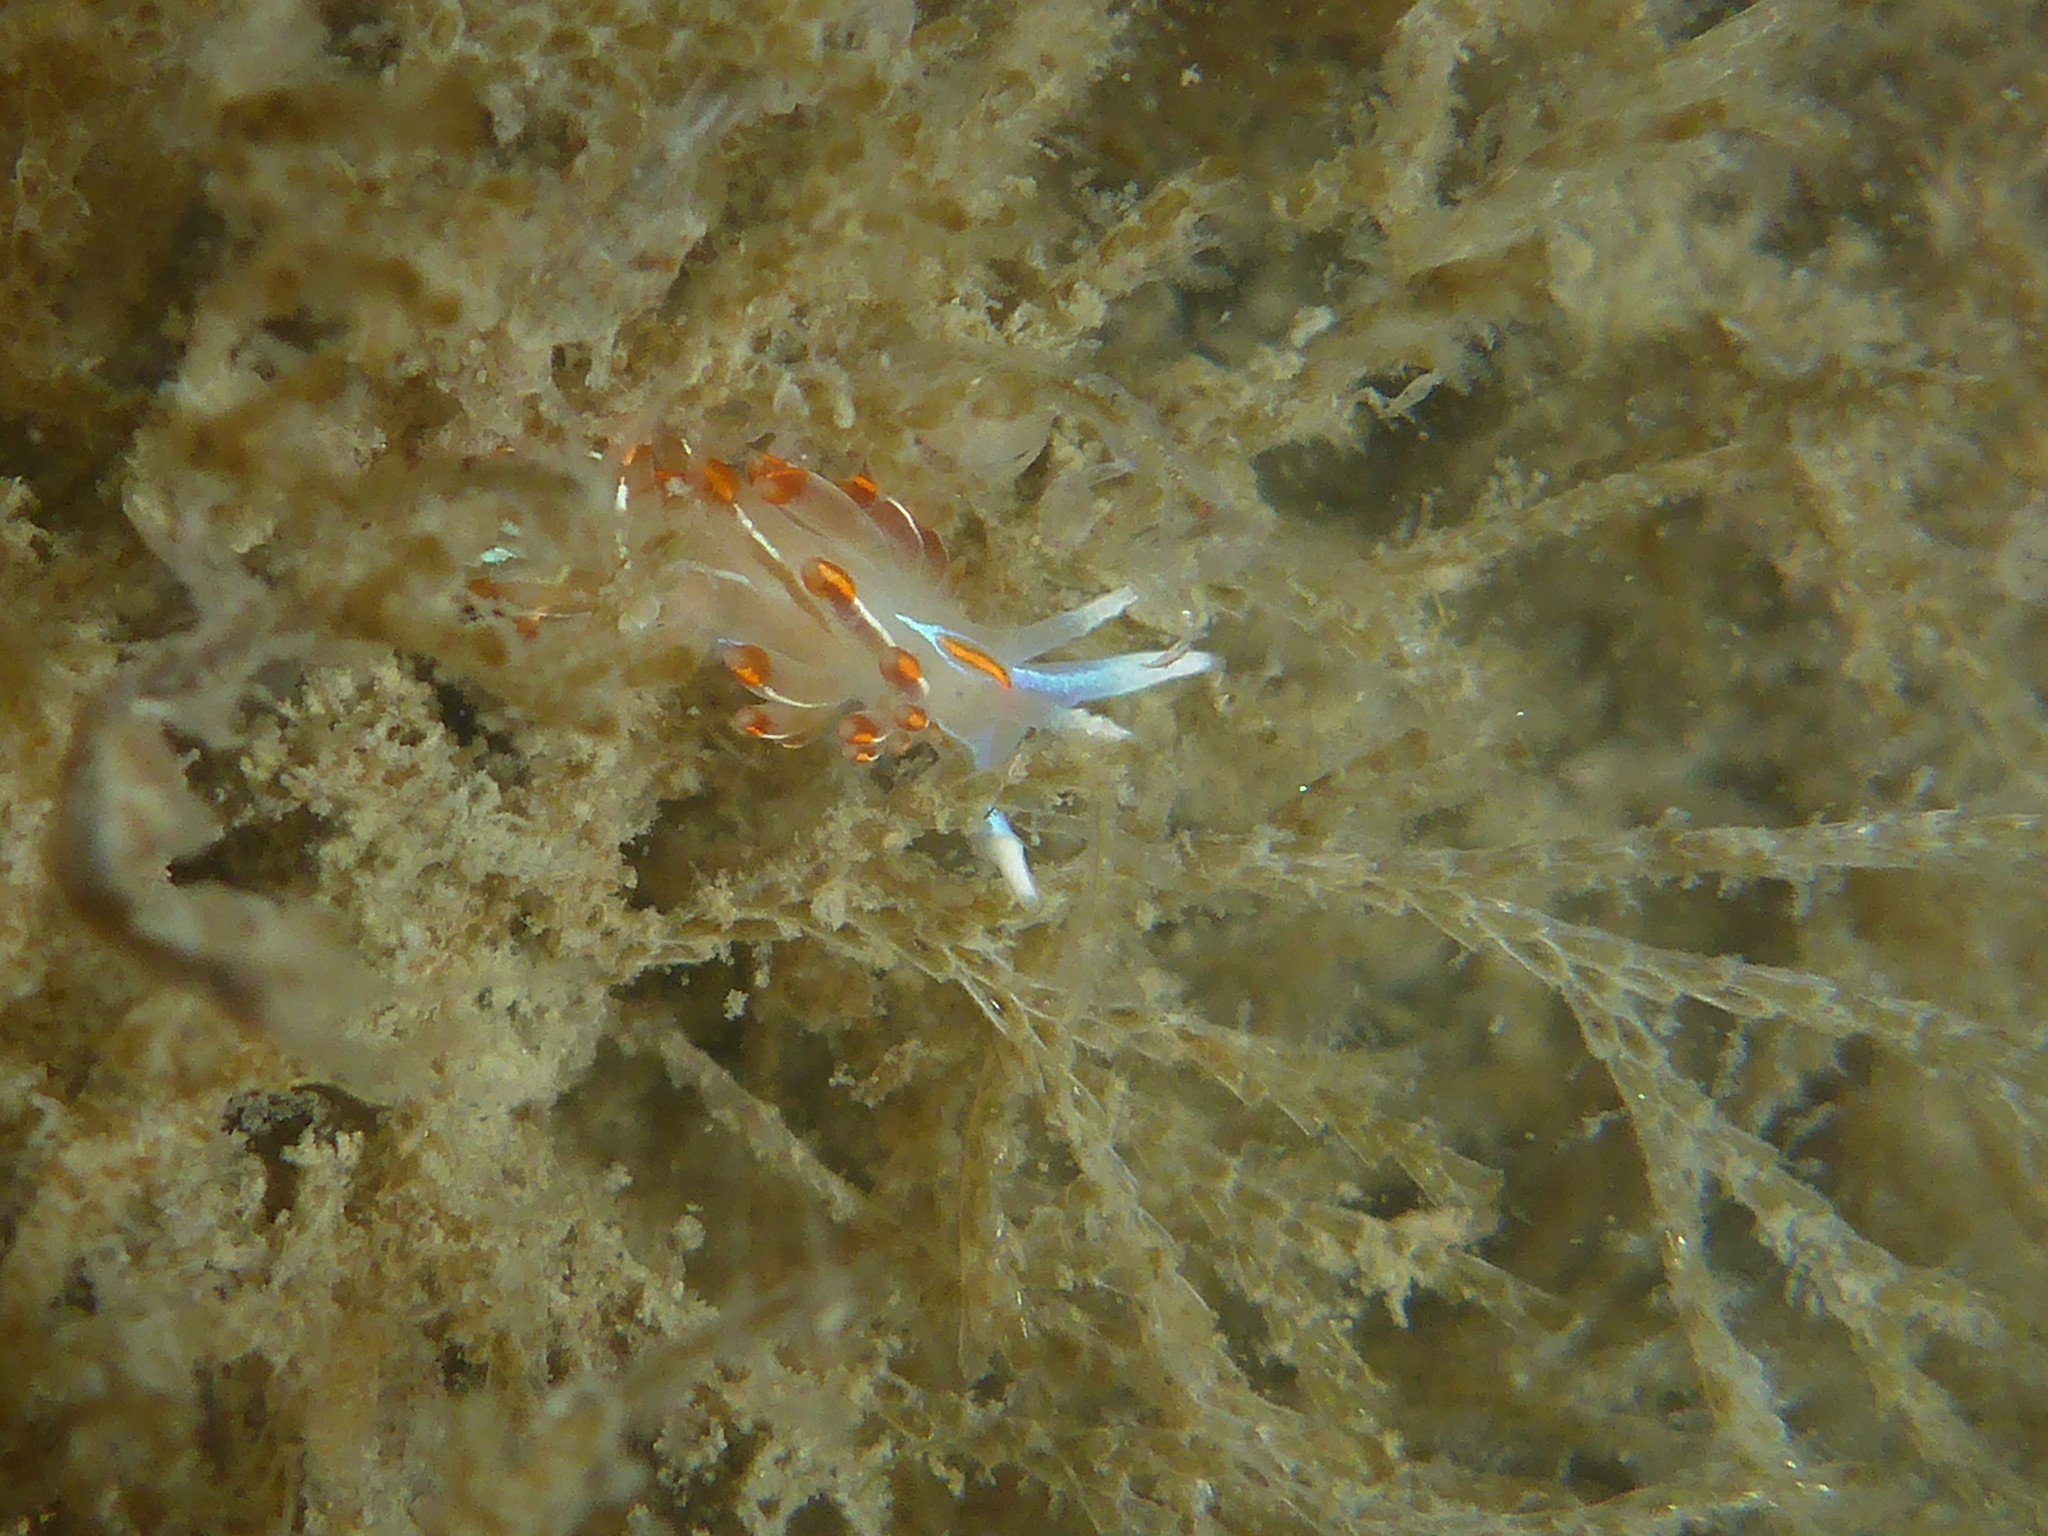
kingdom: Animalia
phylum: Mollusca
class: Gastropoda
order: Nudibranchia
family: Myrrhinidae
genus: Hermissenda
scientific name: Hermissenda crassicornis
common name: Hermissenda
